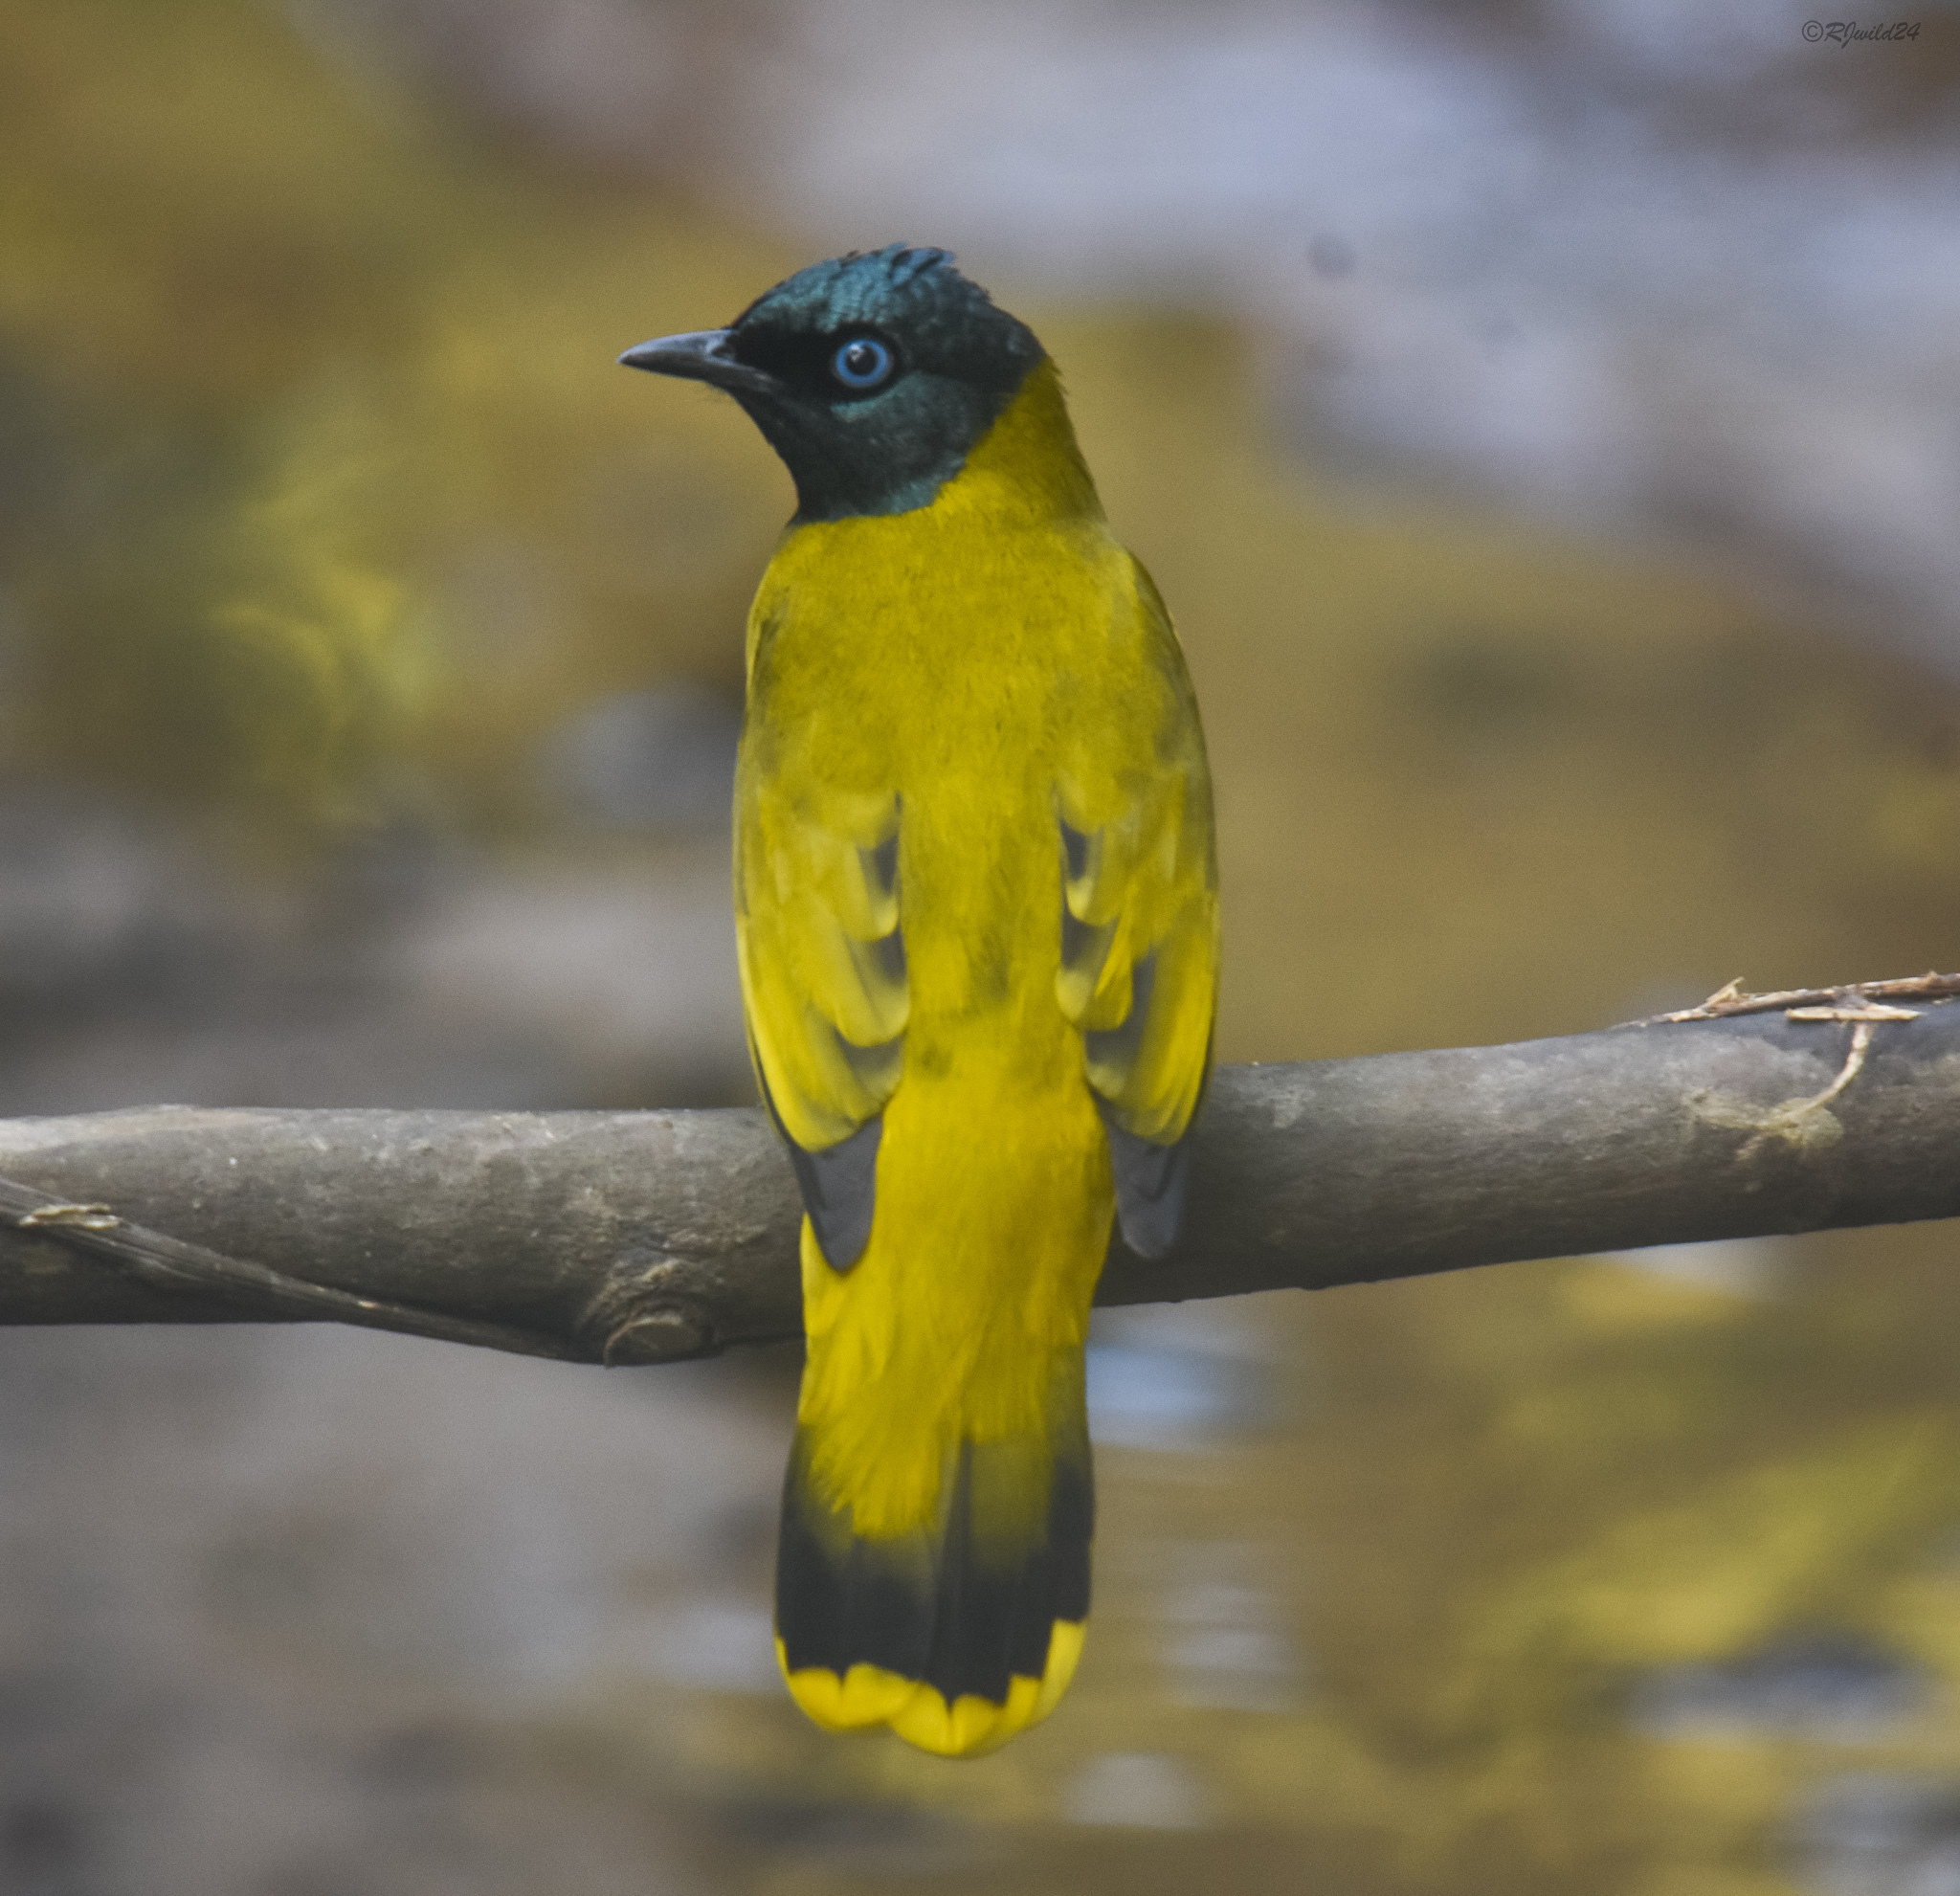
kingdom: Animalia
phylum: Chordata
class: Aves
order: Passeriformes
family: Pycnonotidae
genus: Microtarsus
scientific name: Microtarsus
